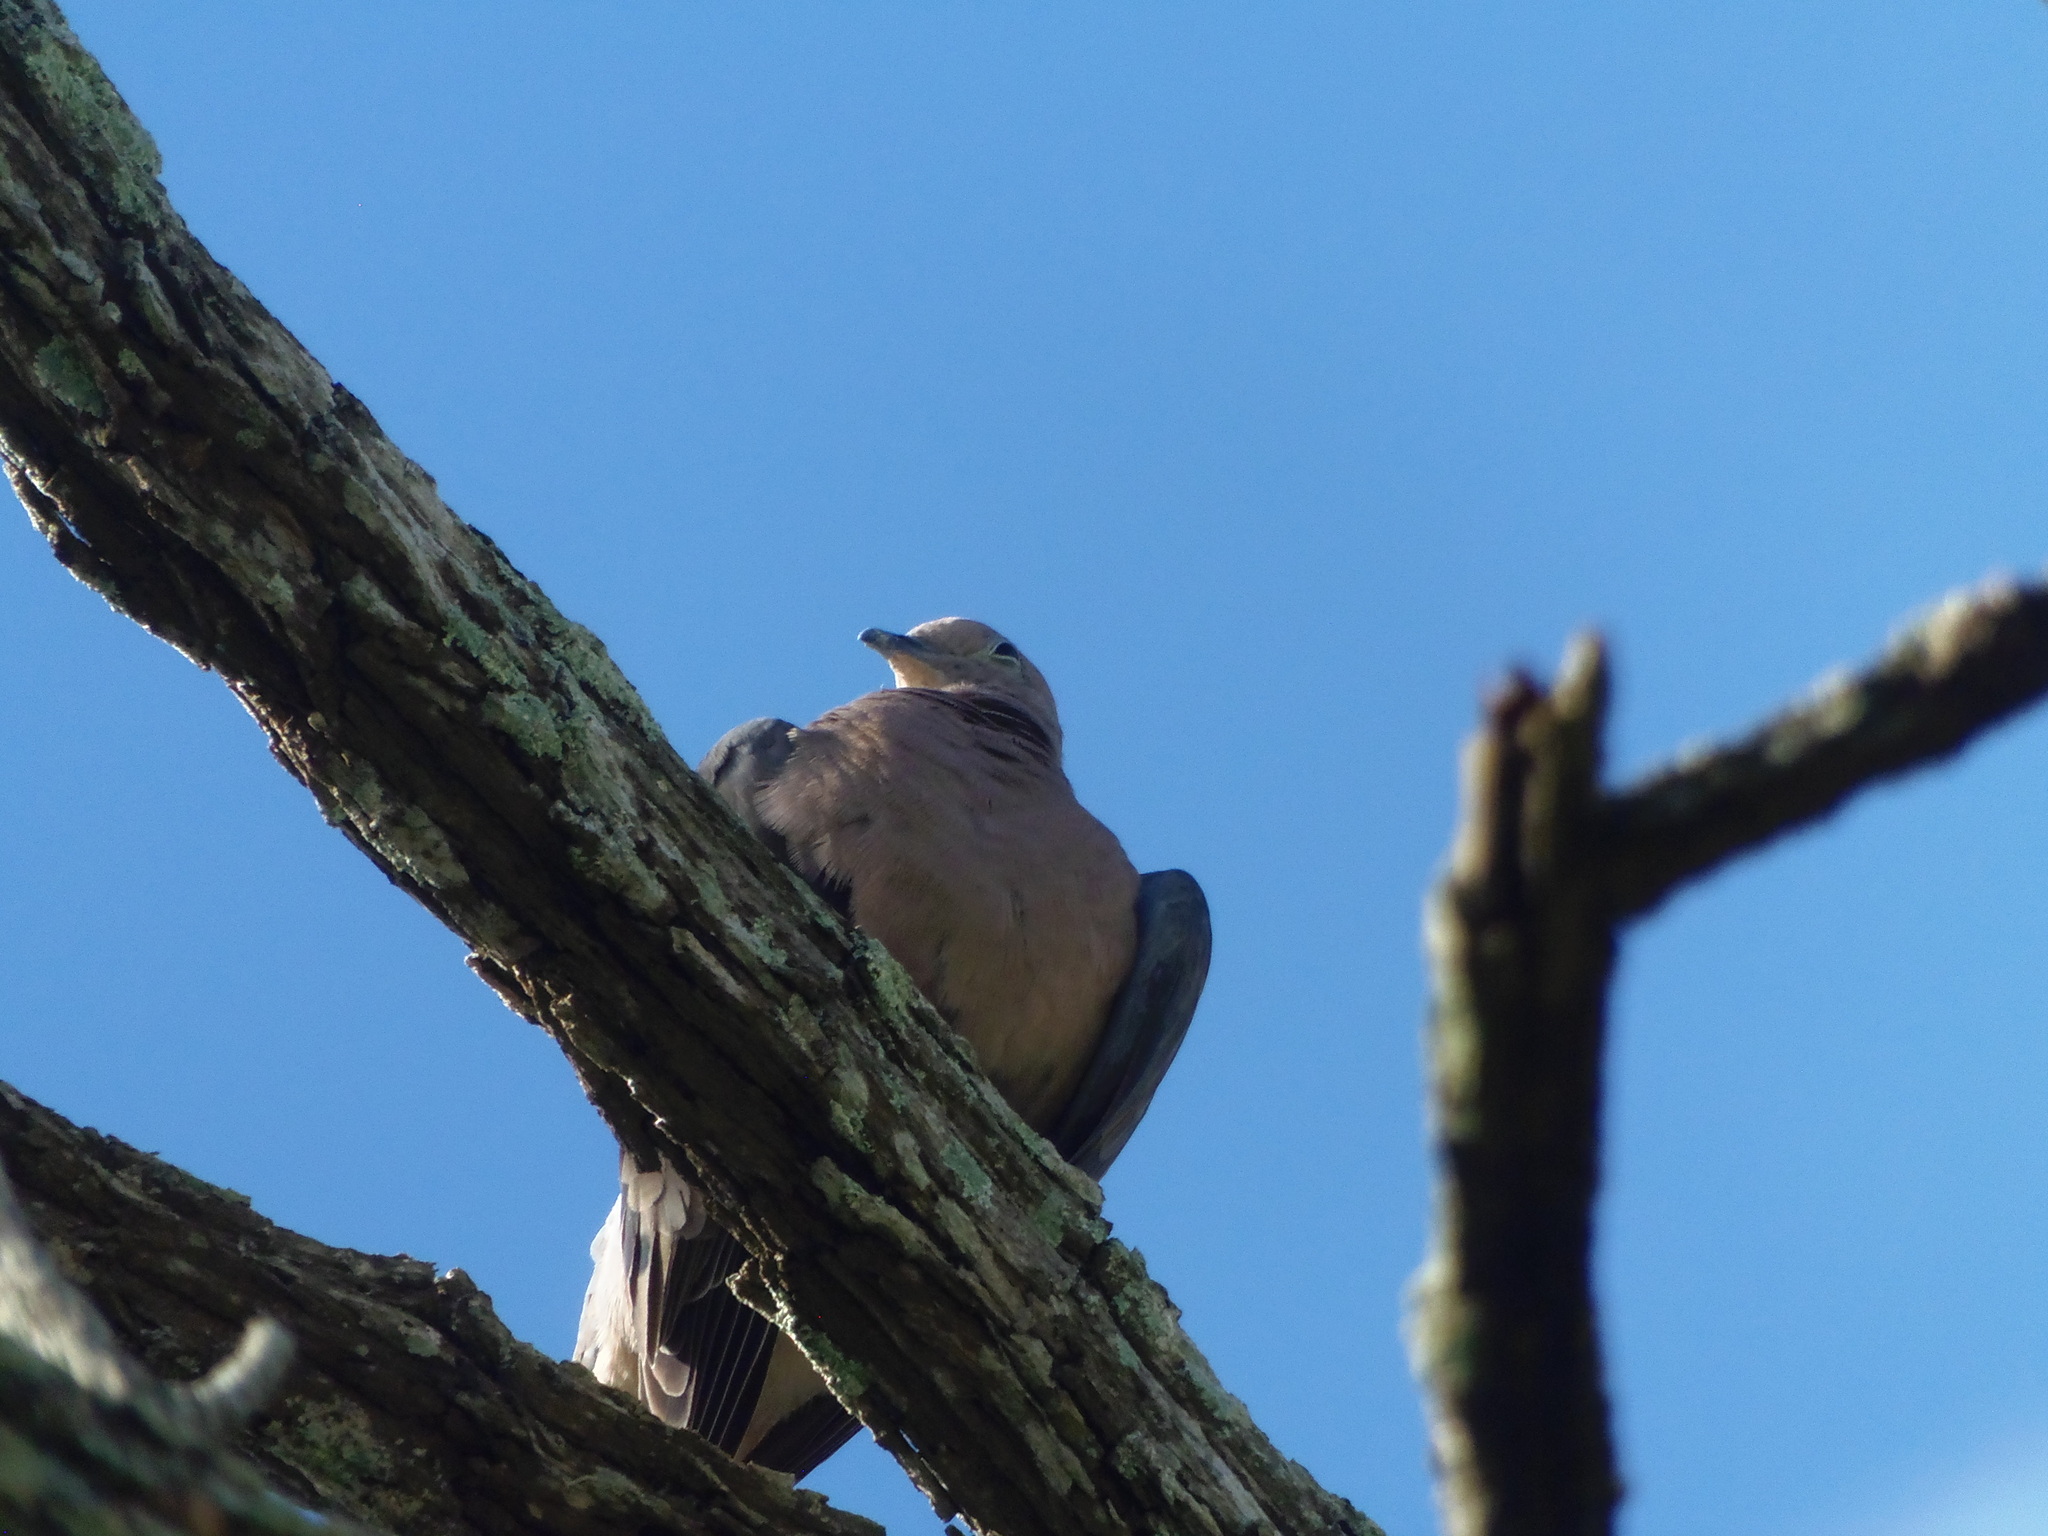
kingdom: Animalia
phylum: Chordata
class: Aves
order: Columbiformes
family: Columbidae
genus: Zenaida
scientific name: Zenaida auriculata
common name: Eared dove
